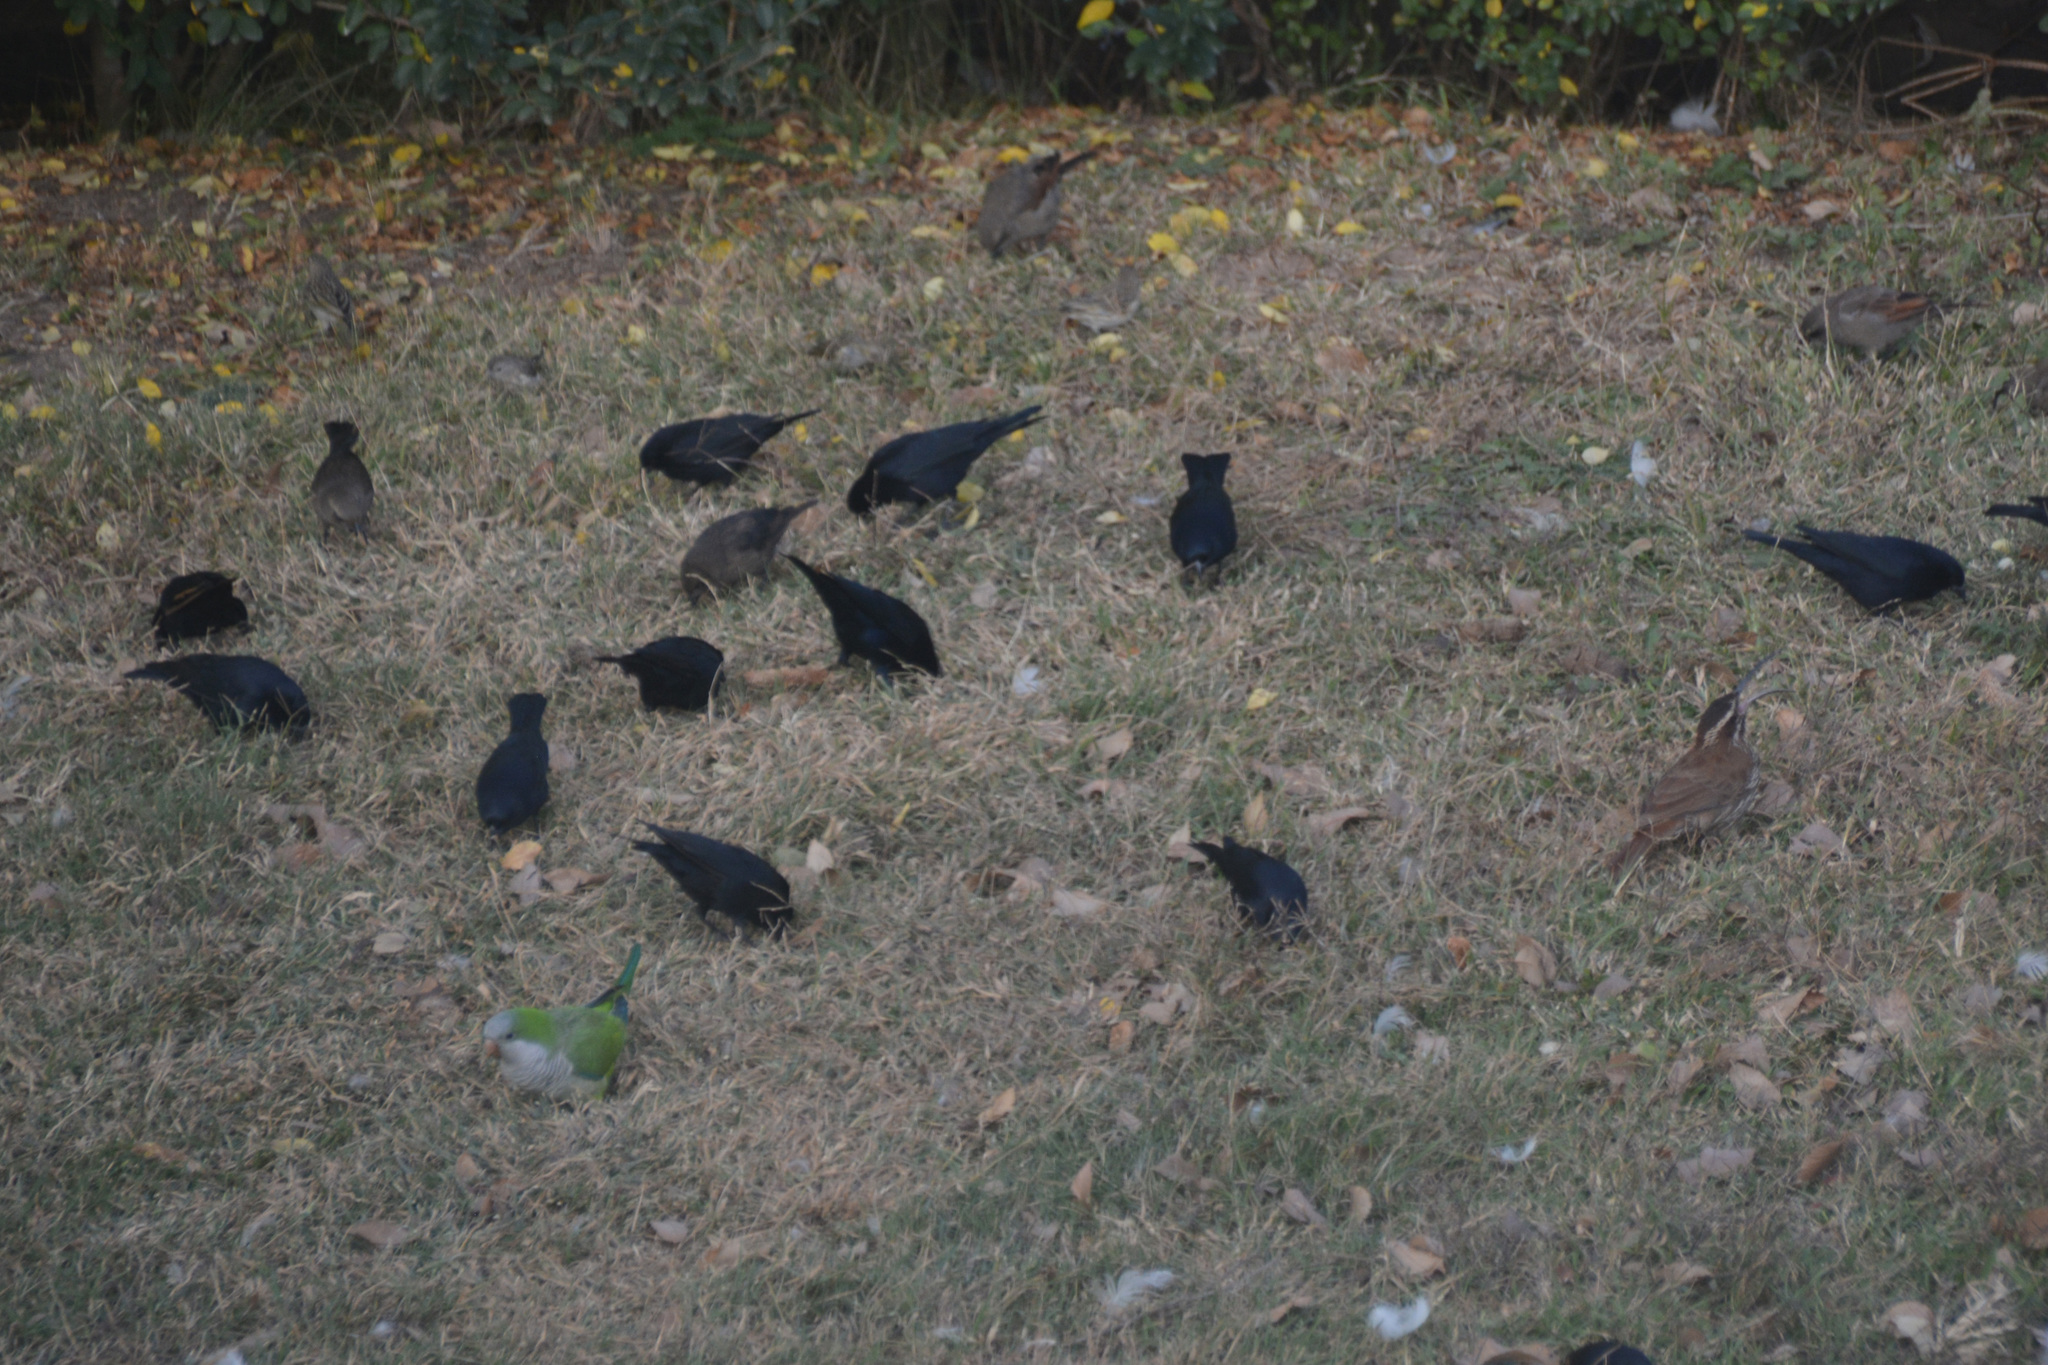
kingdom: Animalia
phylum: Chordata
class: Aves
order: Psittaciformes
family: Psittacidae
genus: Myiopsitta
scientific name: Myiopsitta monachus
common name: Monk parakeet
